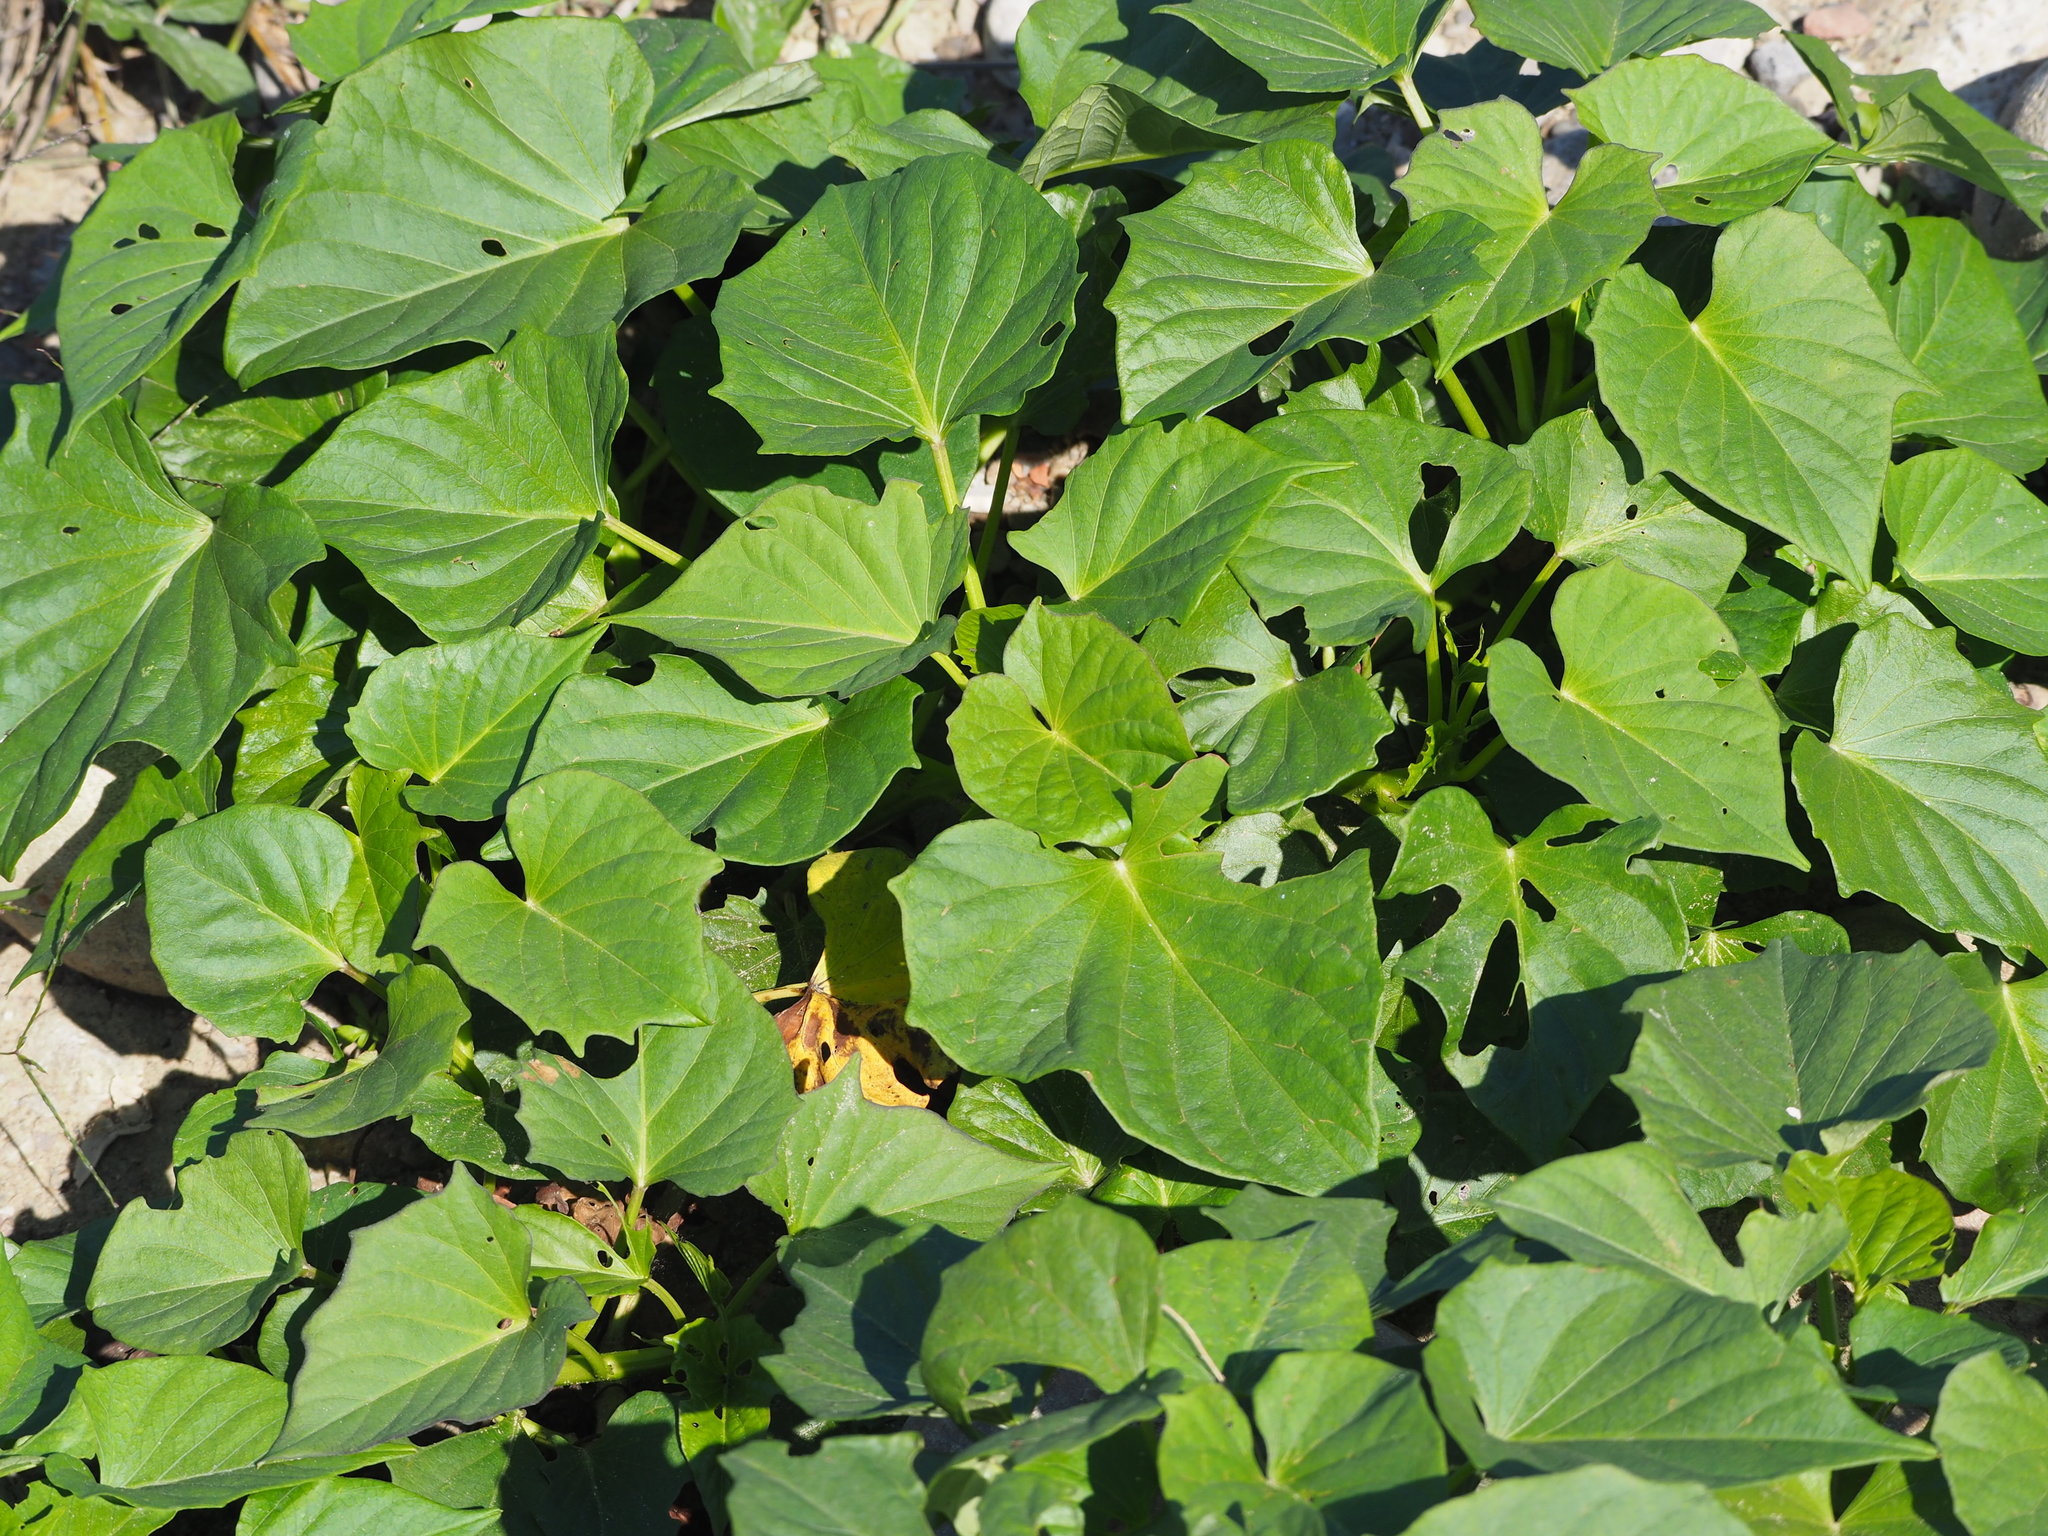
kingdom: Plantae
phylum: Tracheophyta
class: Magnoliopsida
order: Solanales
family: Convolvulaceae
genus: Ipomoea
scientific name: Ipomoea batatas
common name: Sweet-potato
